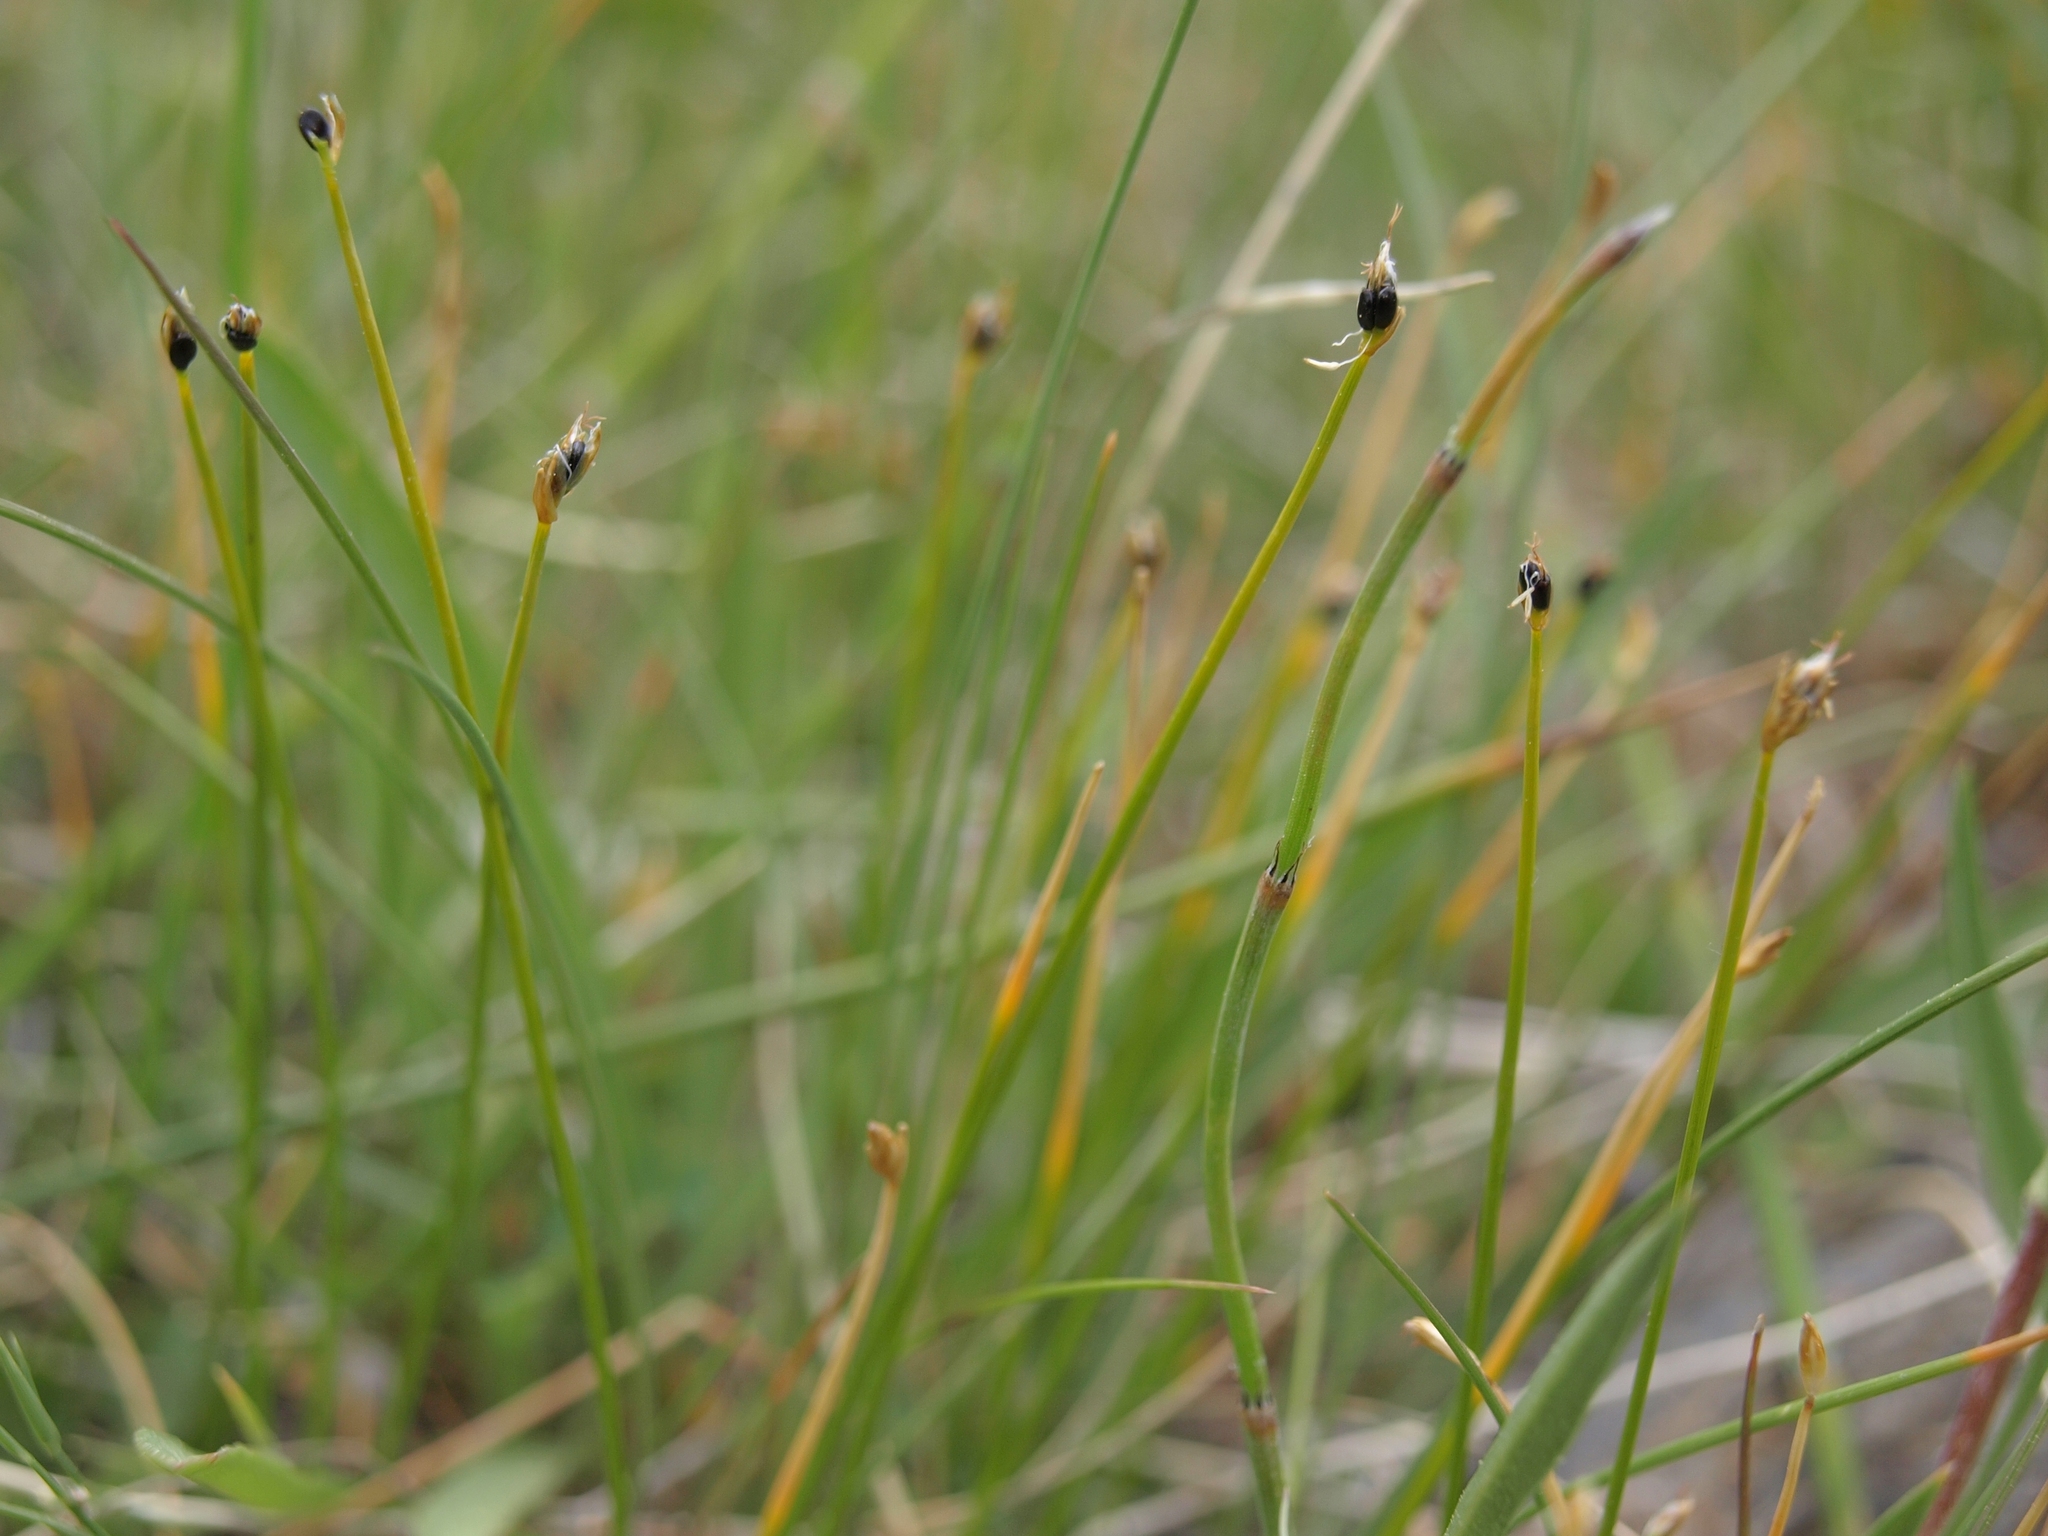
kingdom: Plantae
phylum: Tracheophyta
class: Liliopsida
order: Poales
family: Cyperaceae
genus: Trichophorum
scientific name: Trichophorum pumilum
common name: Rolland's bulrush
